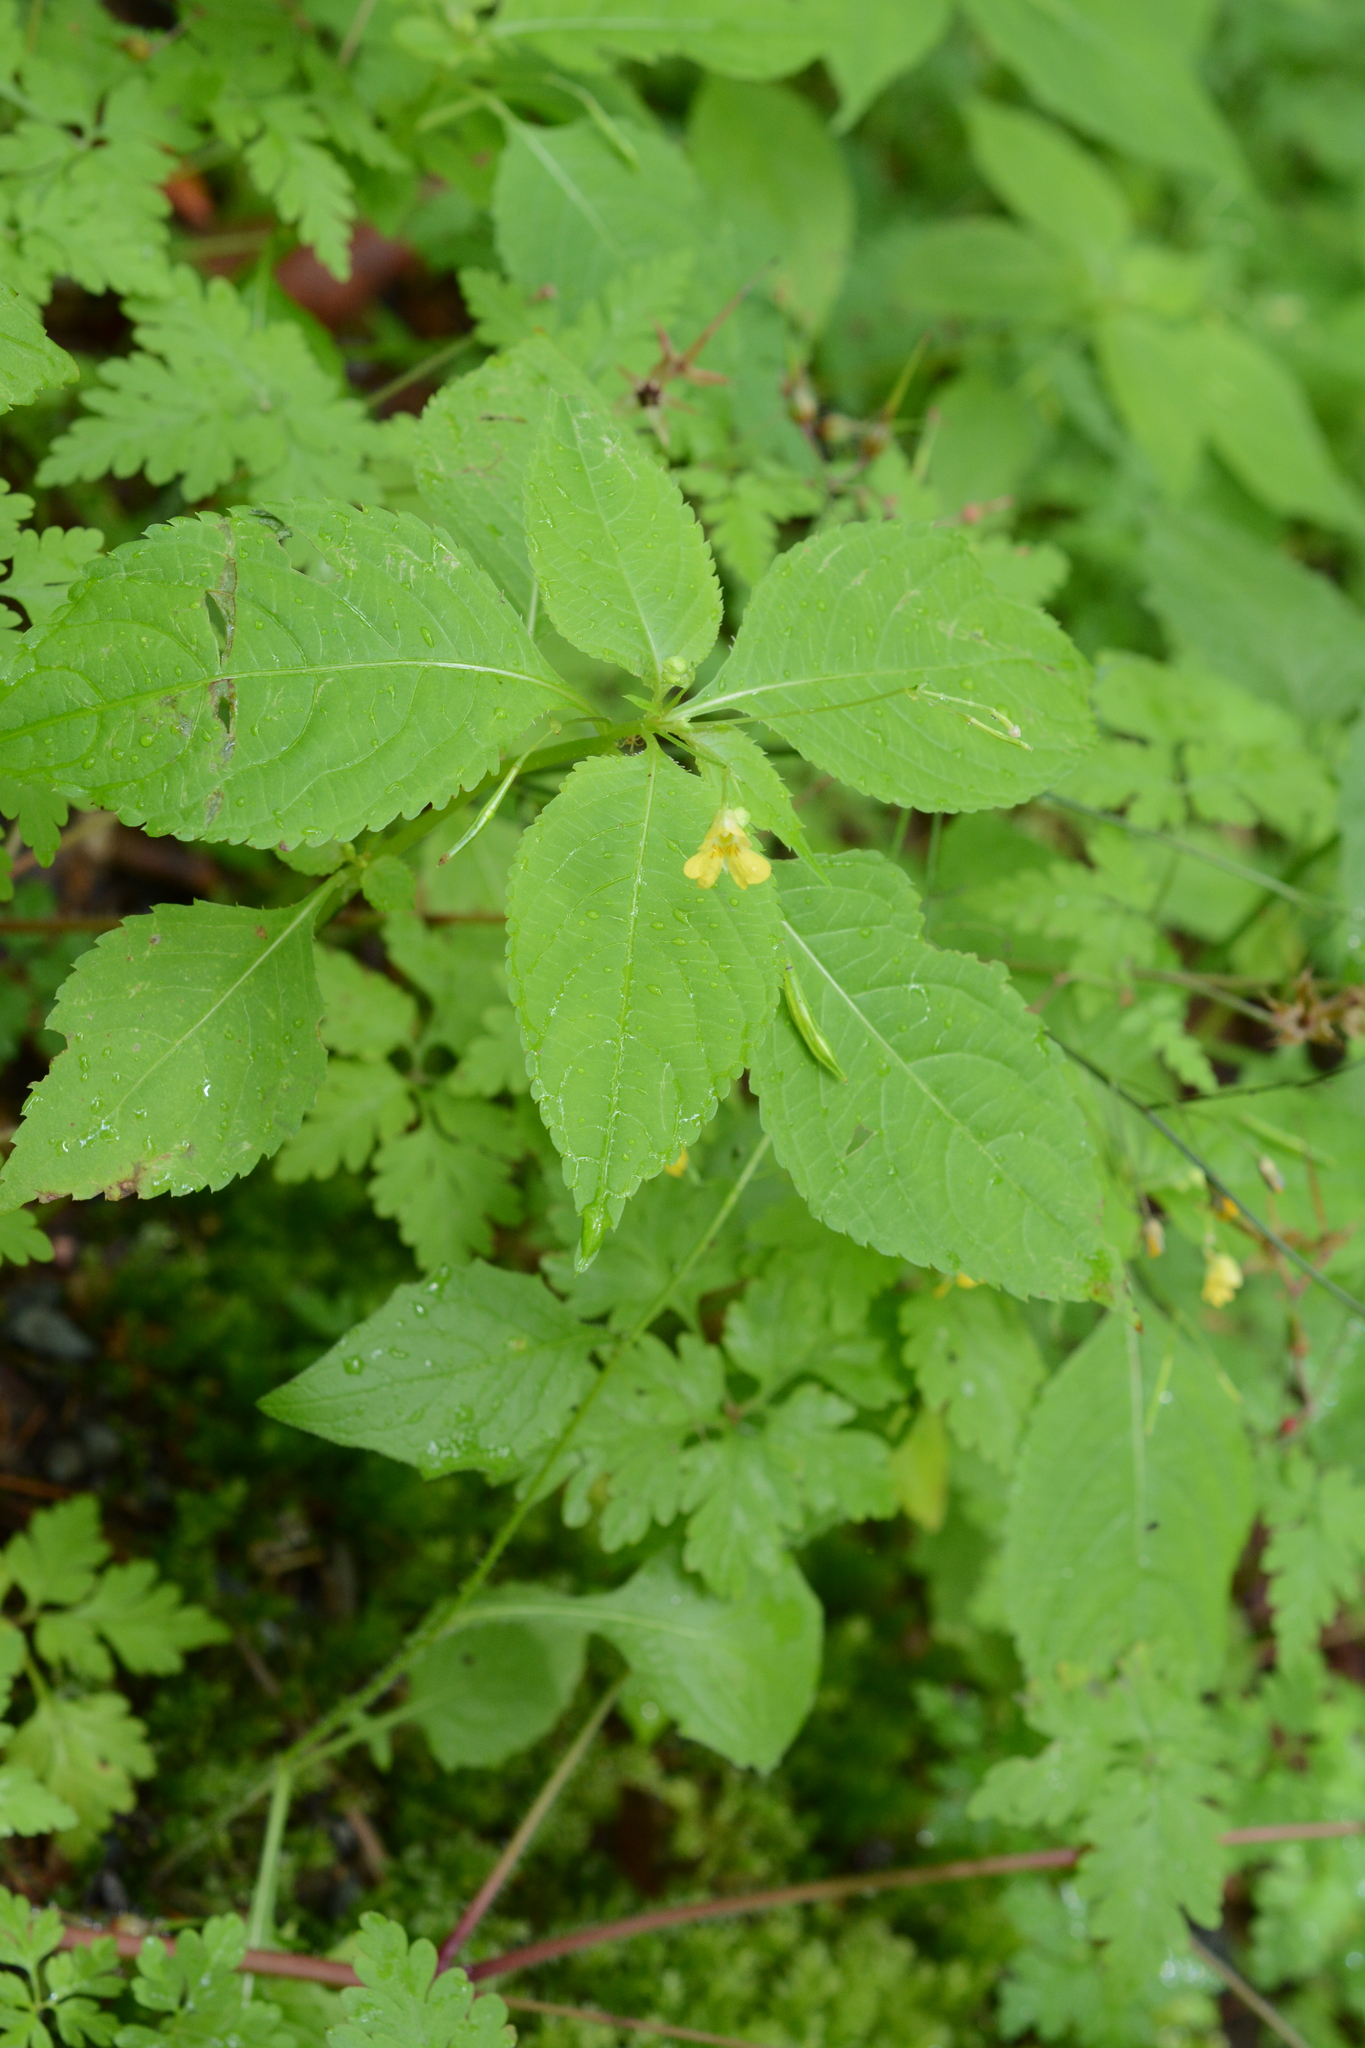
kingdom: Plantae
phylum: Tracheophyta
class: Magnoliopsida
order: Ericales
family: Balsaminaceae
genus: Impatiens
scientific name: Impatiens parviflora
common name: Small balsam
